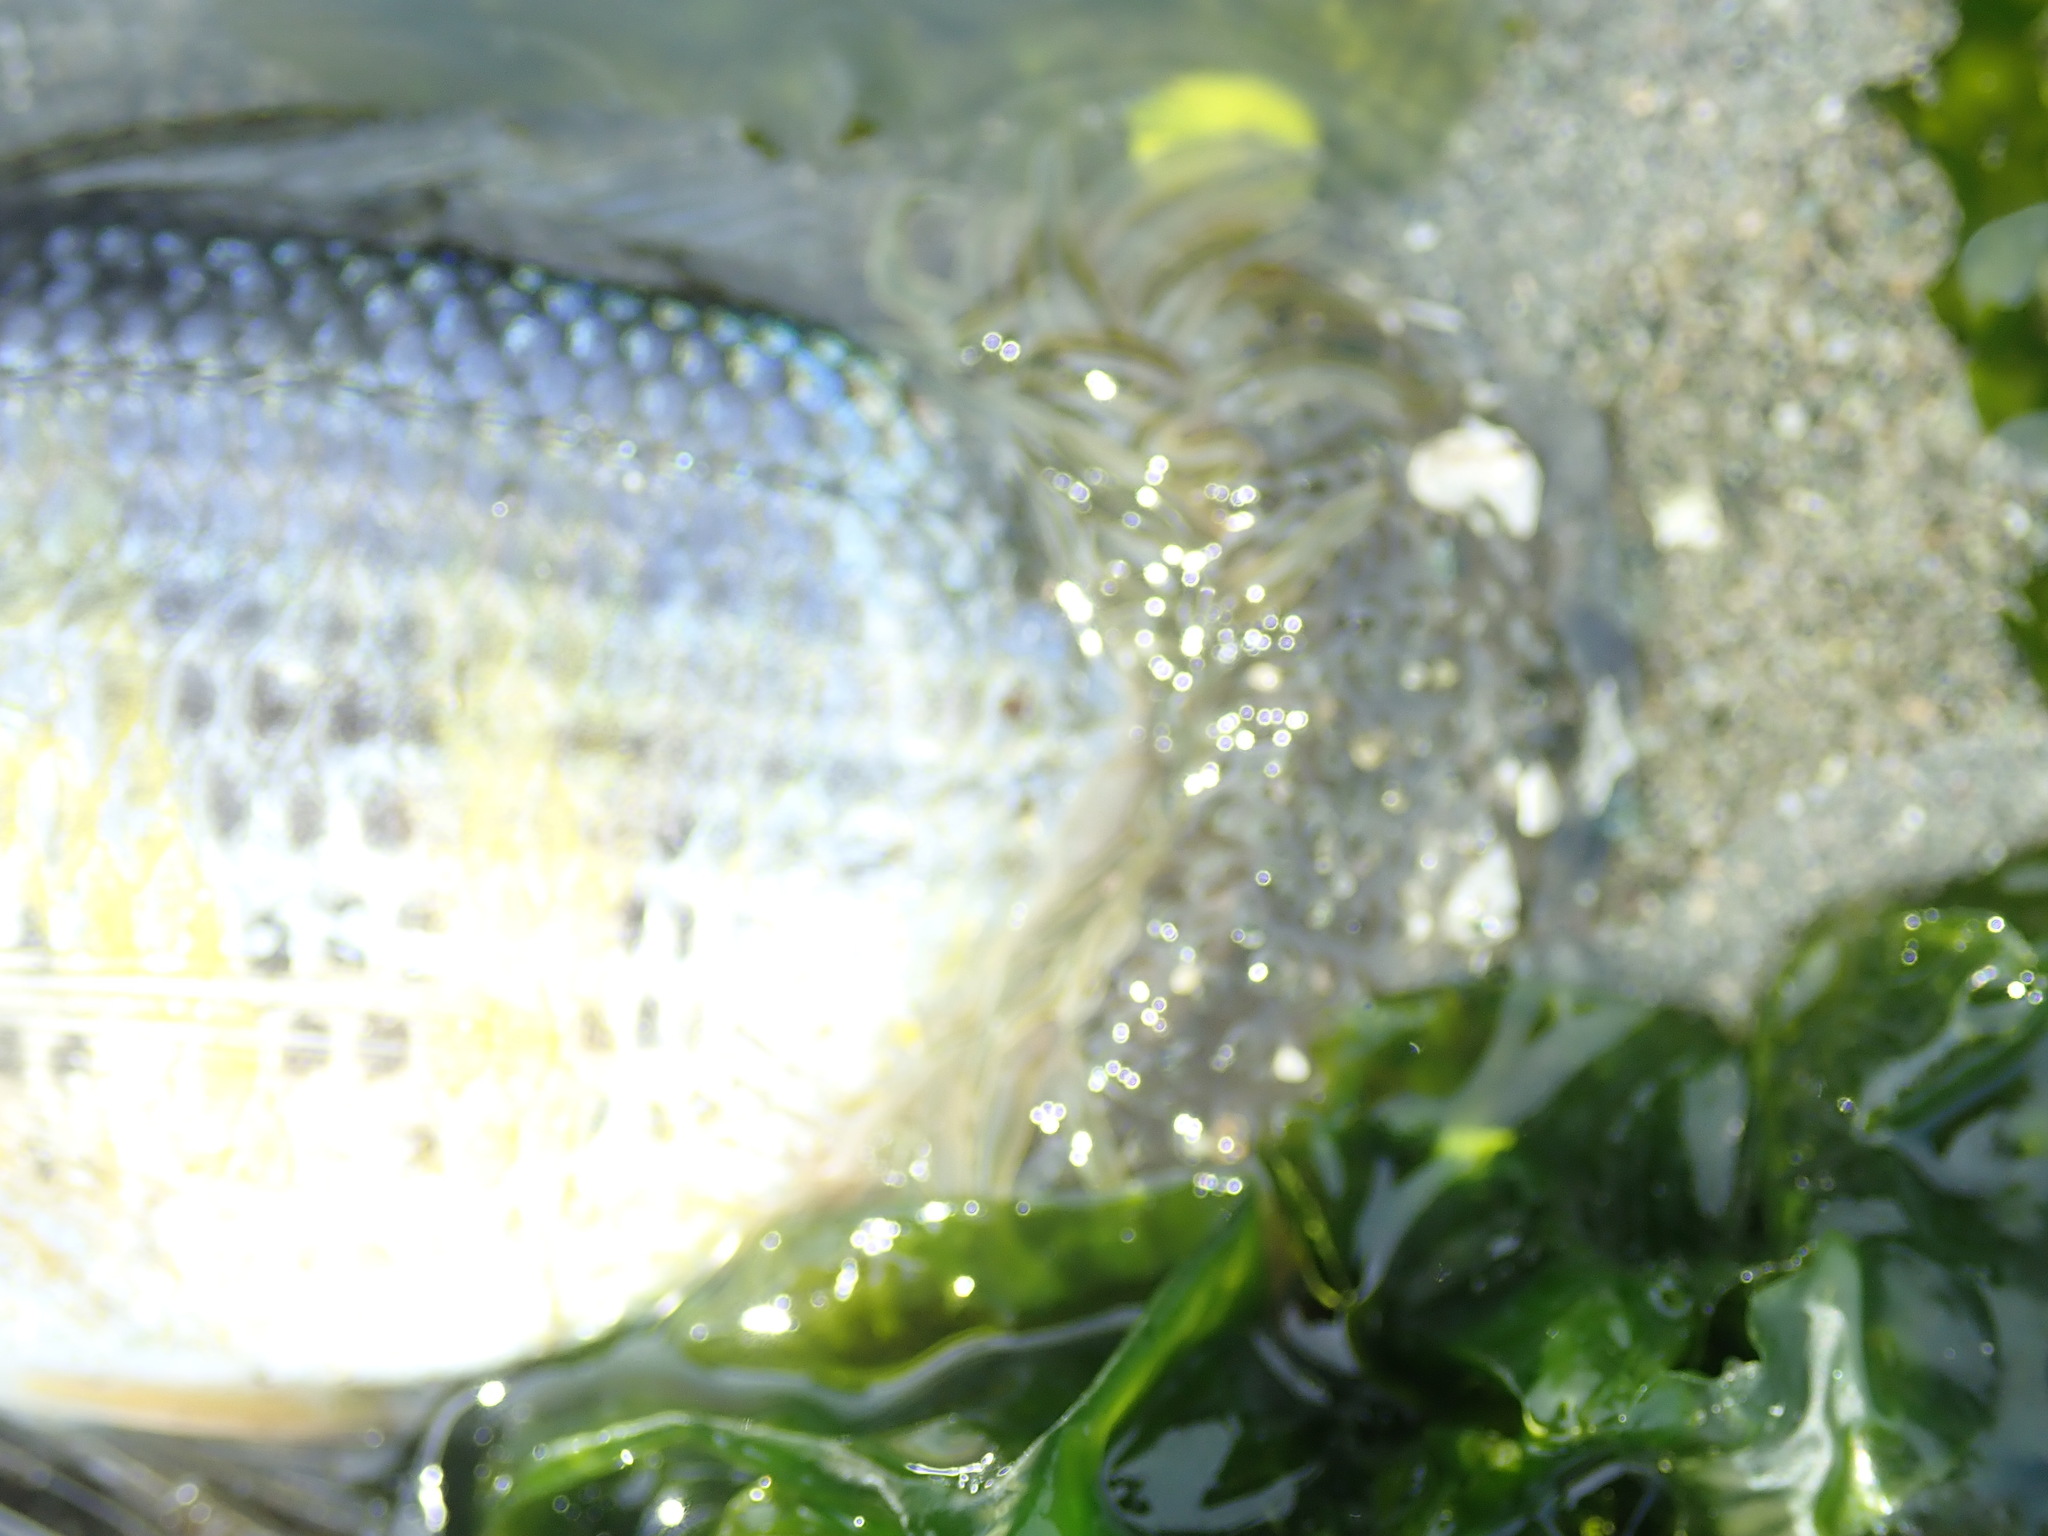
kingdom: Animalia
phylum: Chordata
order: Perciformes
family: Embiotocidae
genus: Cymatogaster
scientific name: Cymatogaster aggregata
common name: Shiner perch
